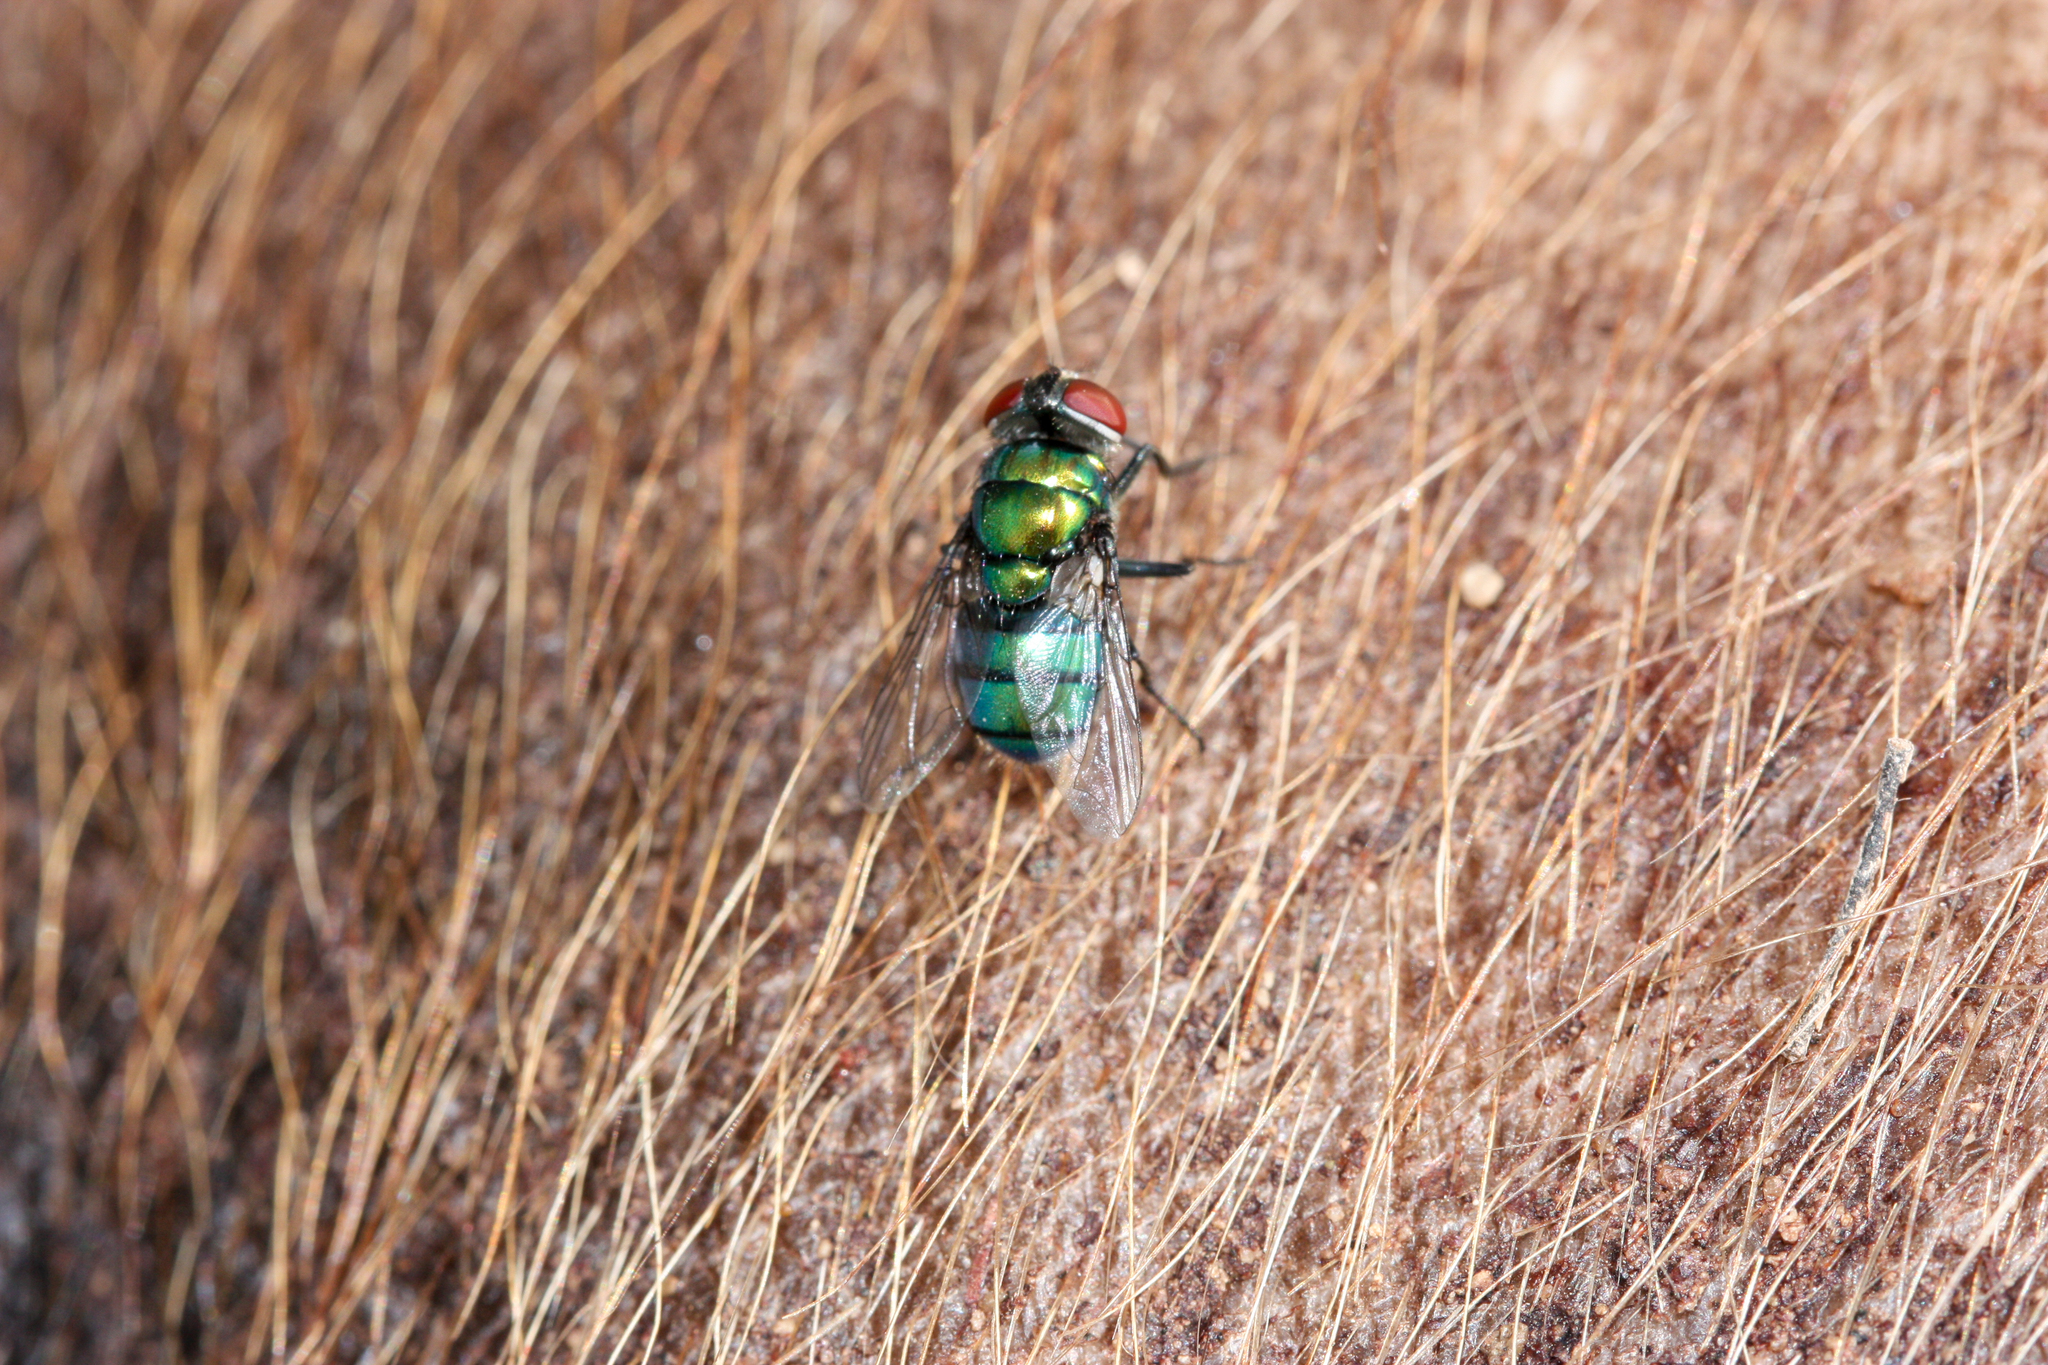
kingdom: Animalia
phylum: Arthropoda
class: Insecta
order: Diptera
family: Calliphoridae
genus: Chrysomya
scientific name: Chrysomya rufifacies
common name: Blow fly
